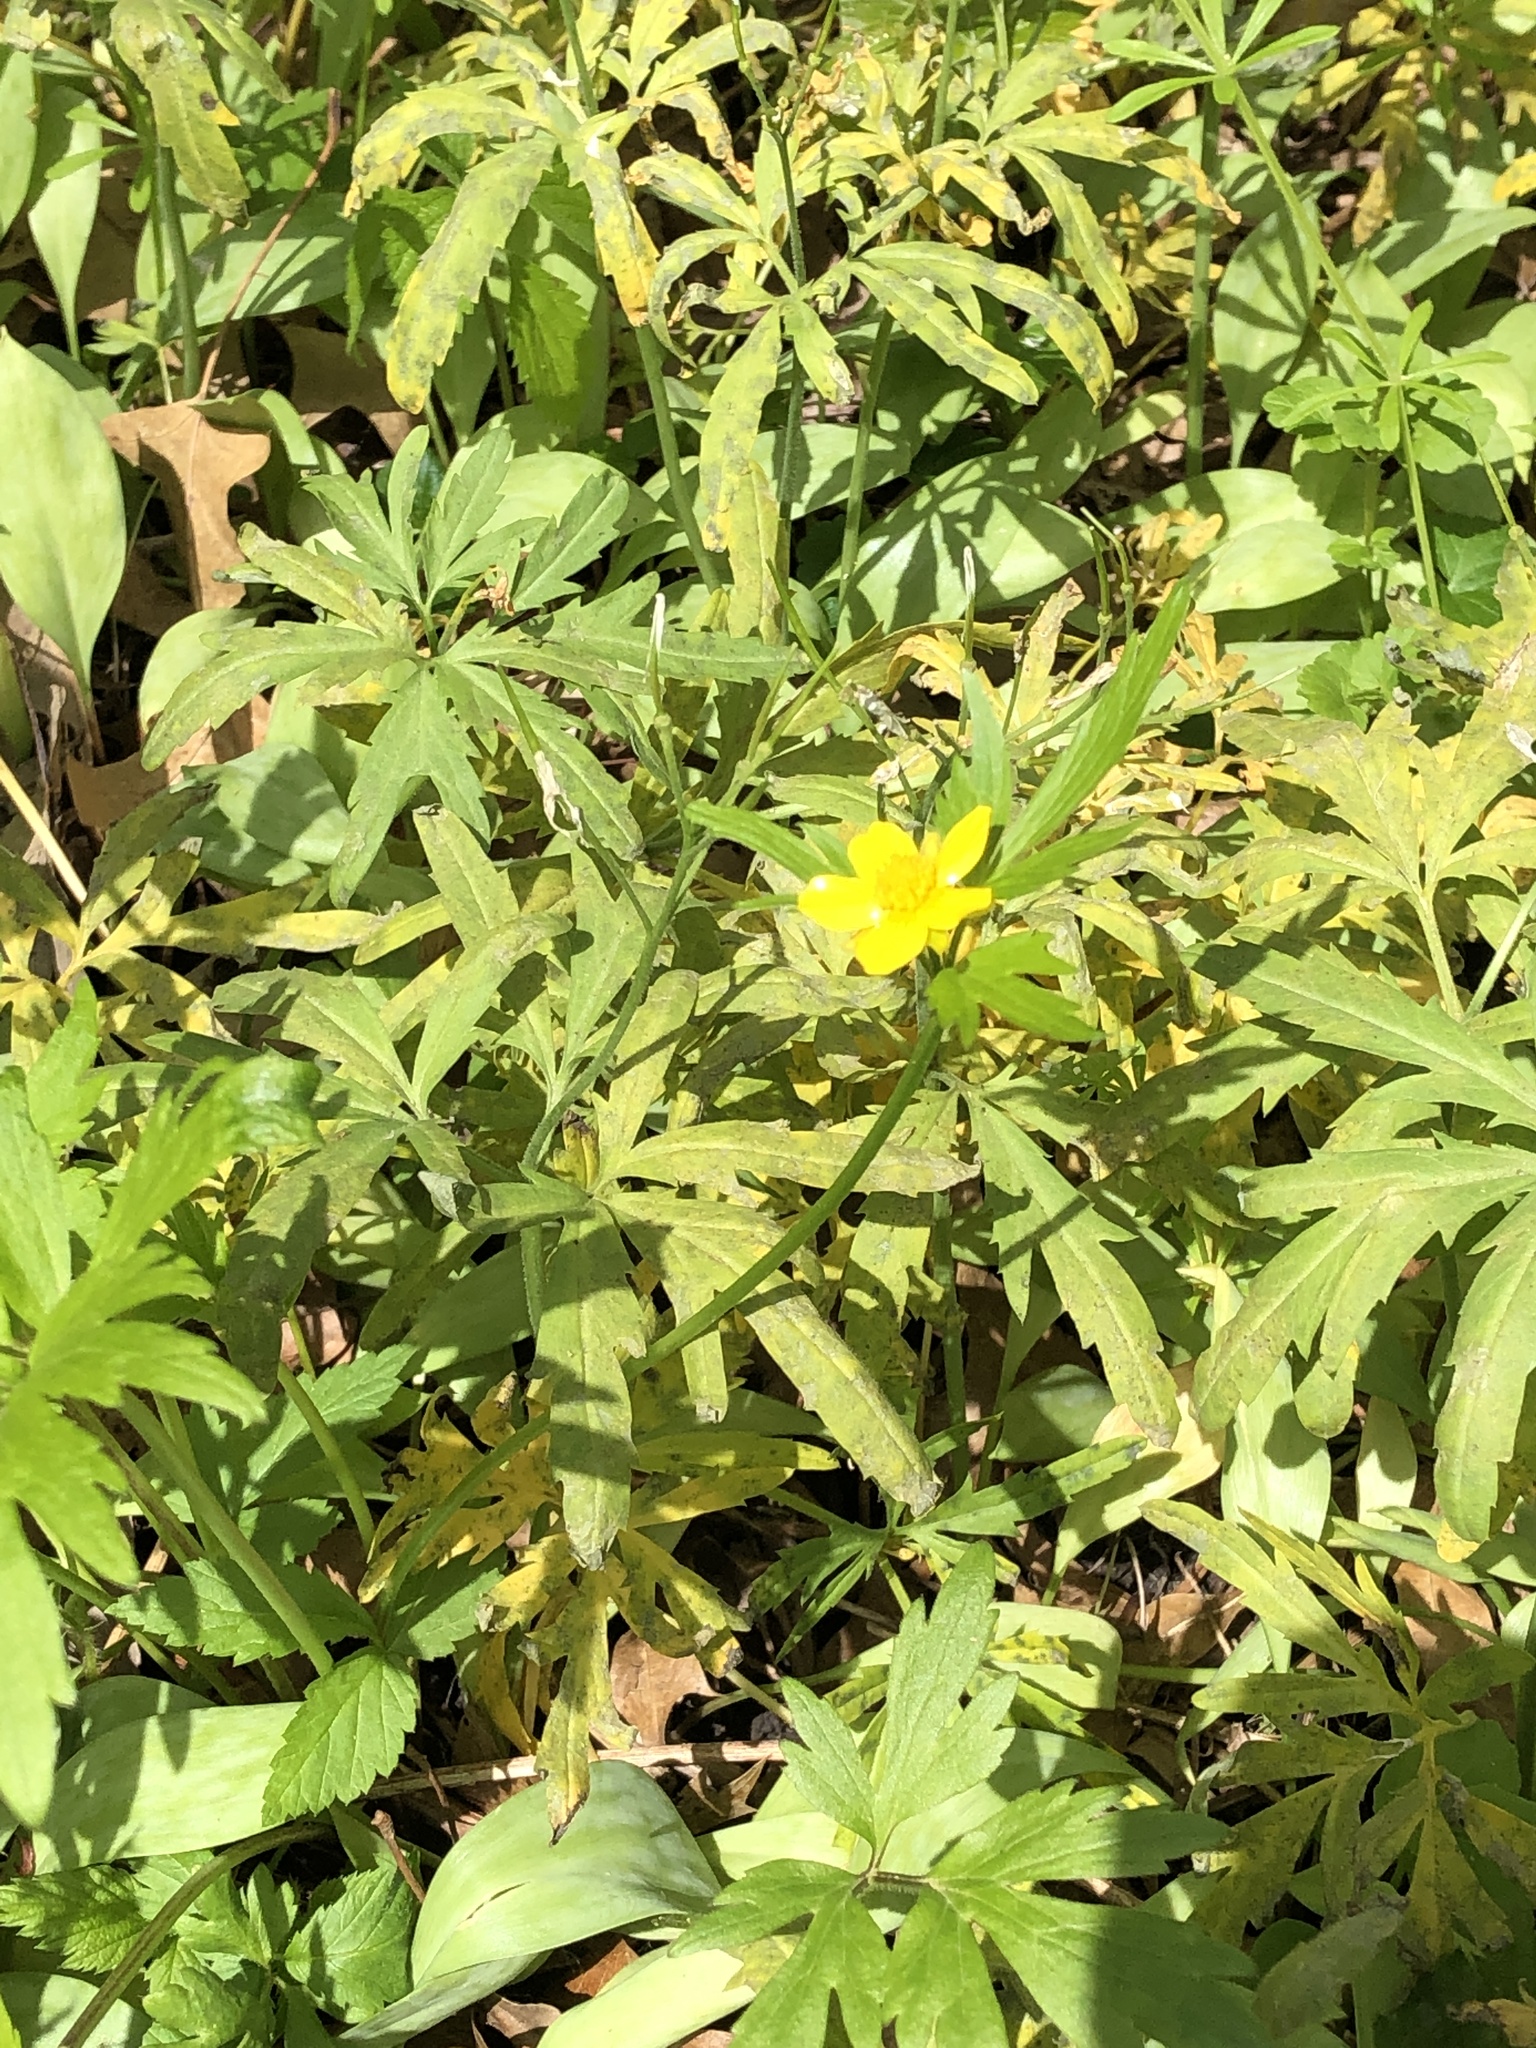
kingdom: Plantae
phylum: Tracheophyta
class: Magnoliopsida
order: Ranunculales
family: Ranunculaceae
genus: Ranunculus
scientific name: Ranunculus hispidus
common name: Bristly buttercup
